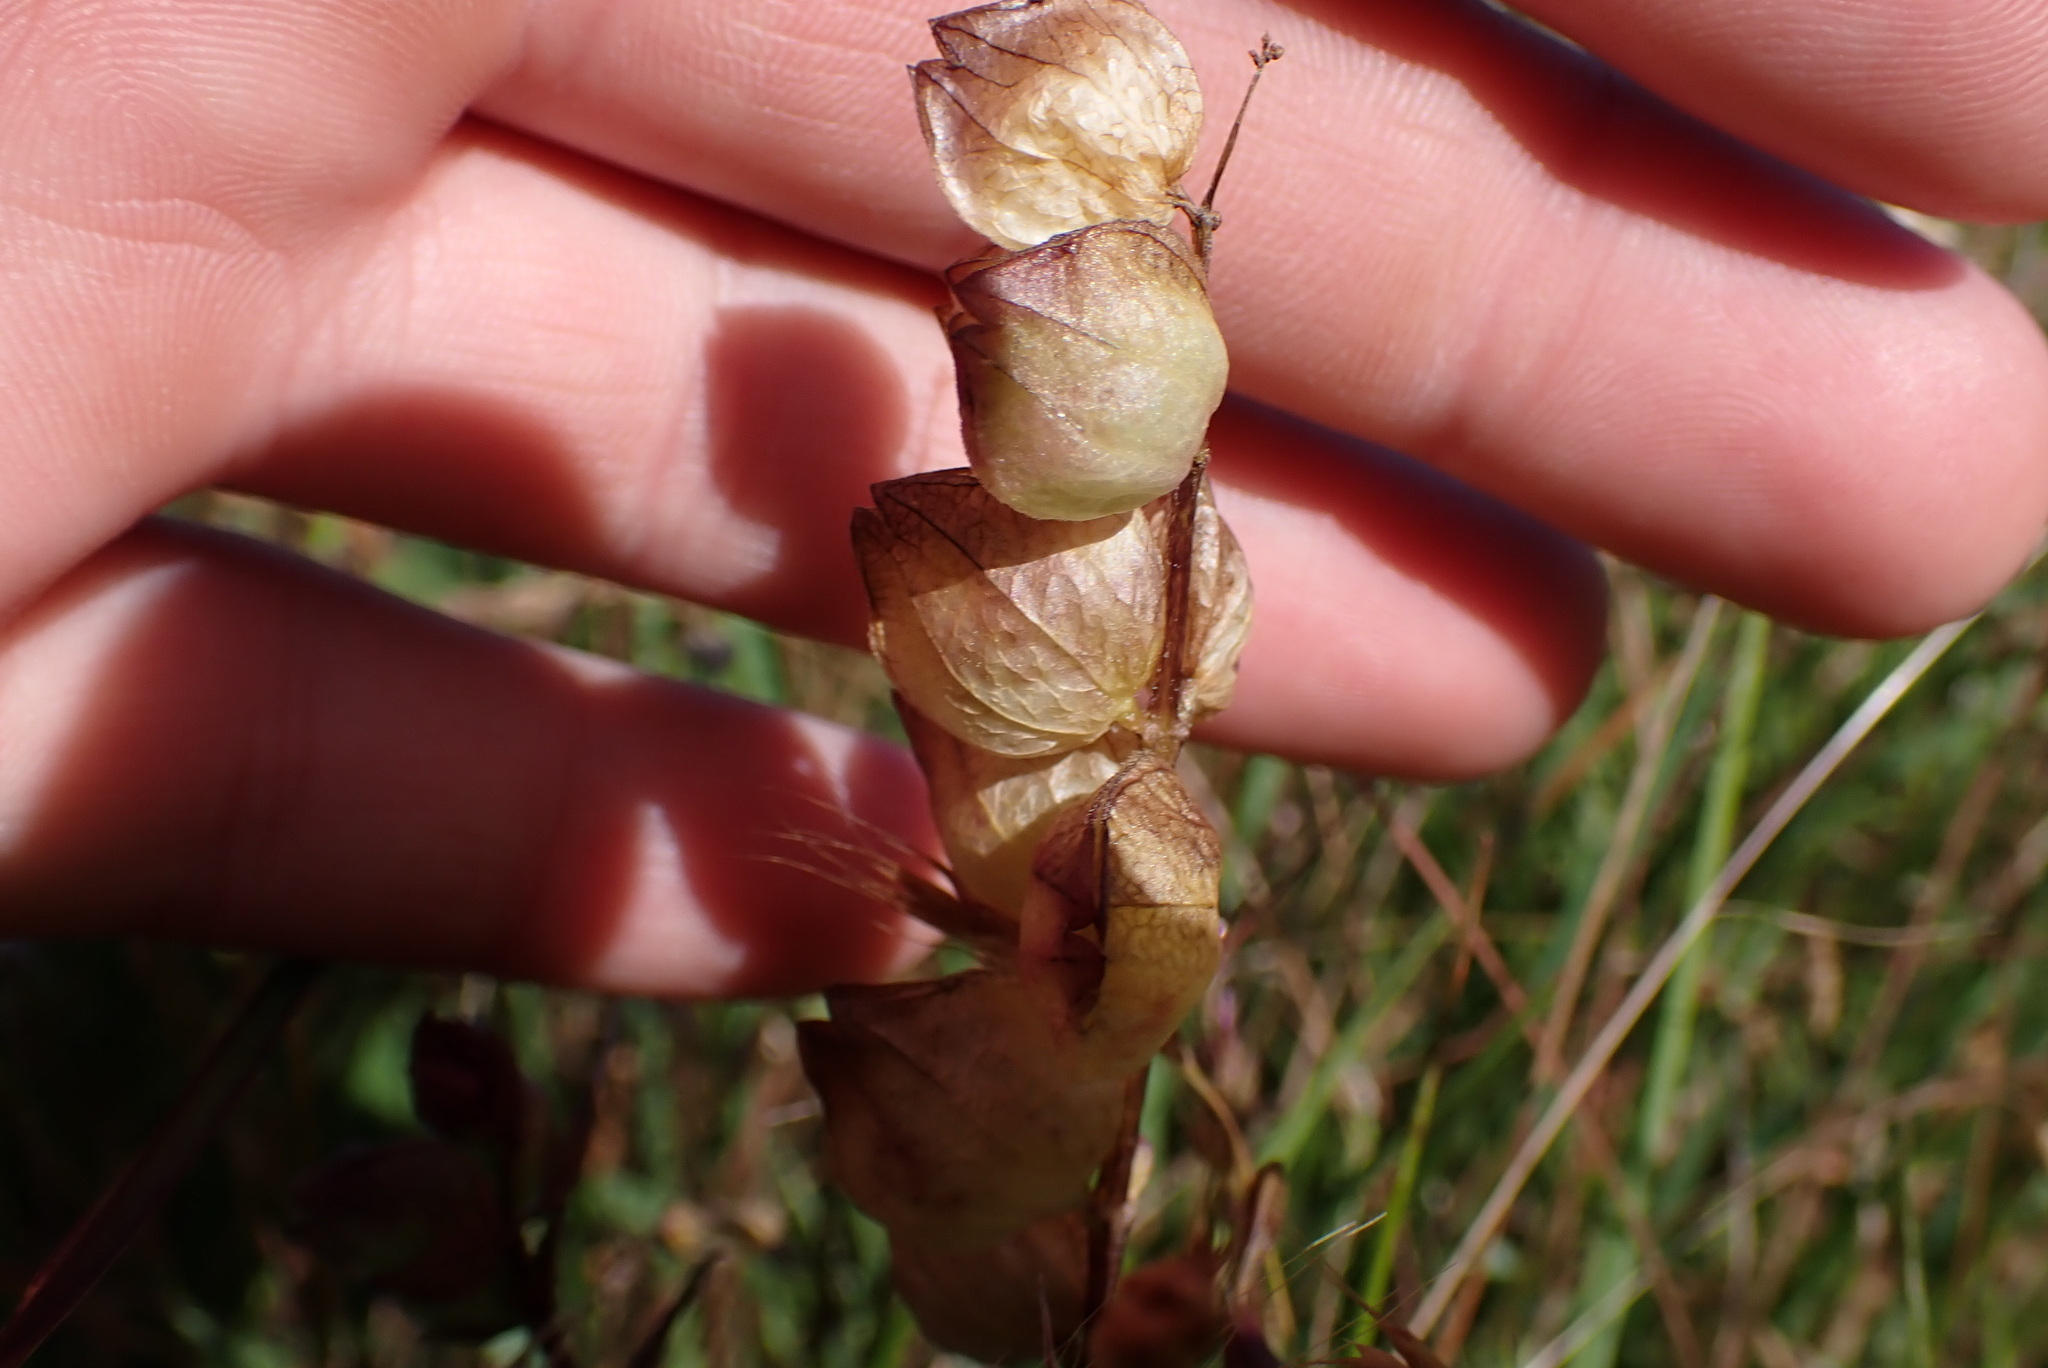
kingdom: Plantae
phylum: Tracheophyta
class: Magnoliopsida
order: Lamiales
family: Orobanchaceae
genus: Rhinanthus
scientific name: Rhinanthus minor
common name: Yellow-rattle
